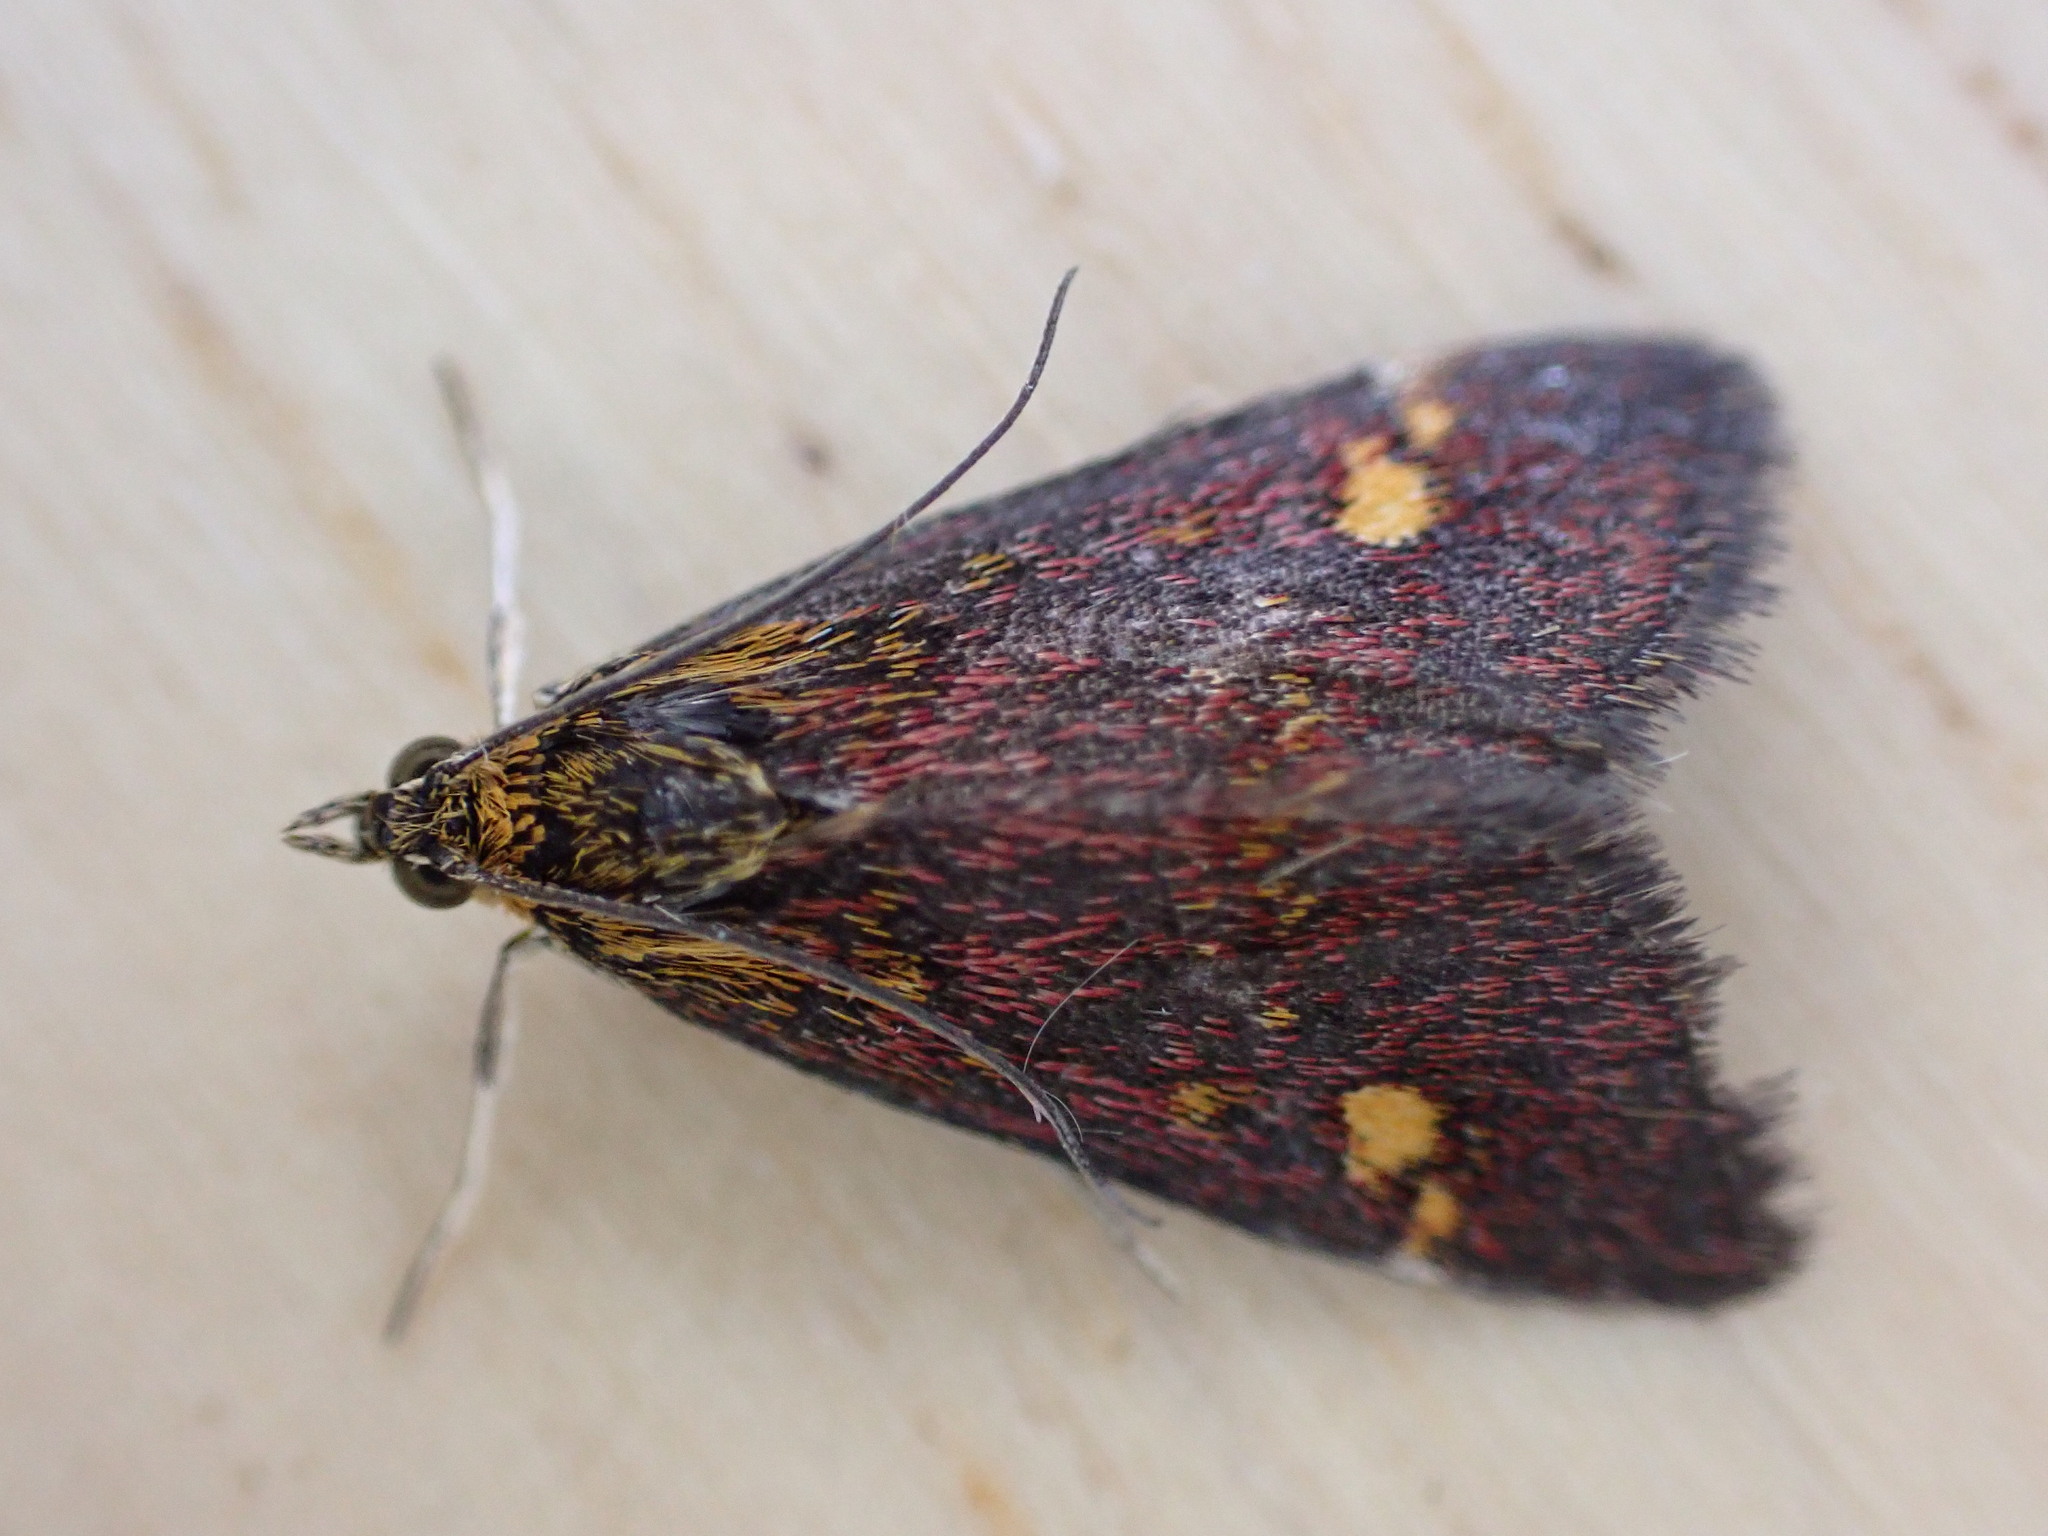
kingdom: Animalia
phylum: Arthropoda
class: Insecta
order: Lepidoptera
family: Crambidae
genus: Pyrausta
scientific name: Pyrausta aurata
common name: Small purple & gold
